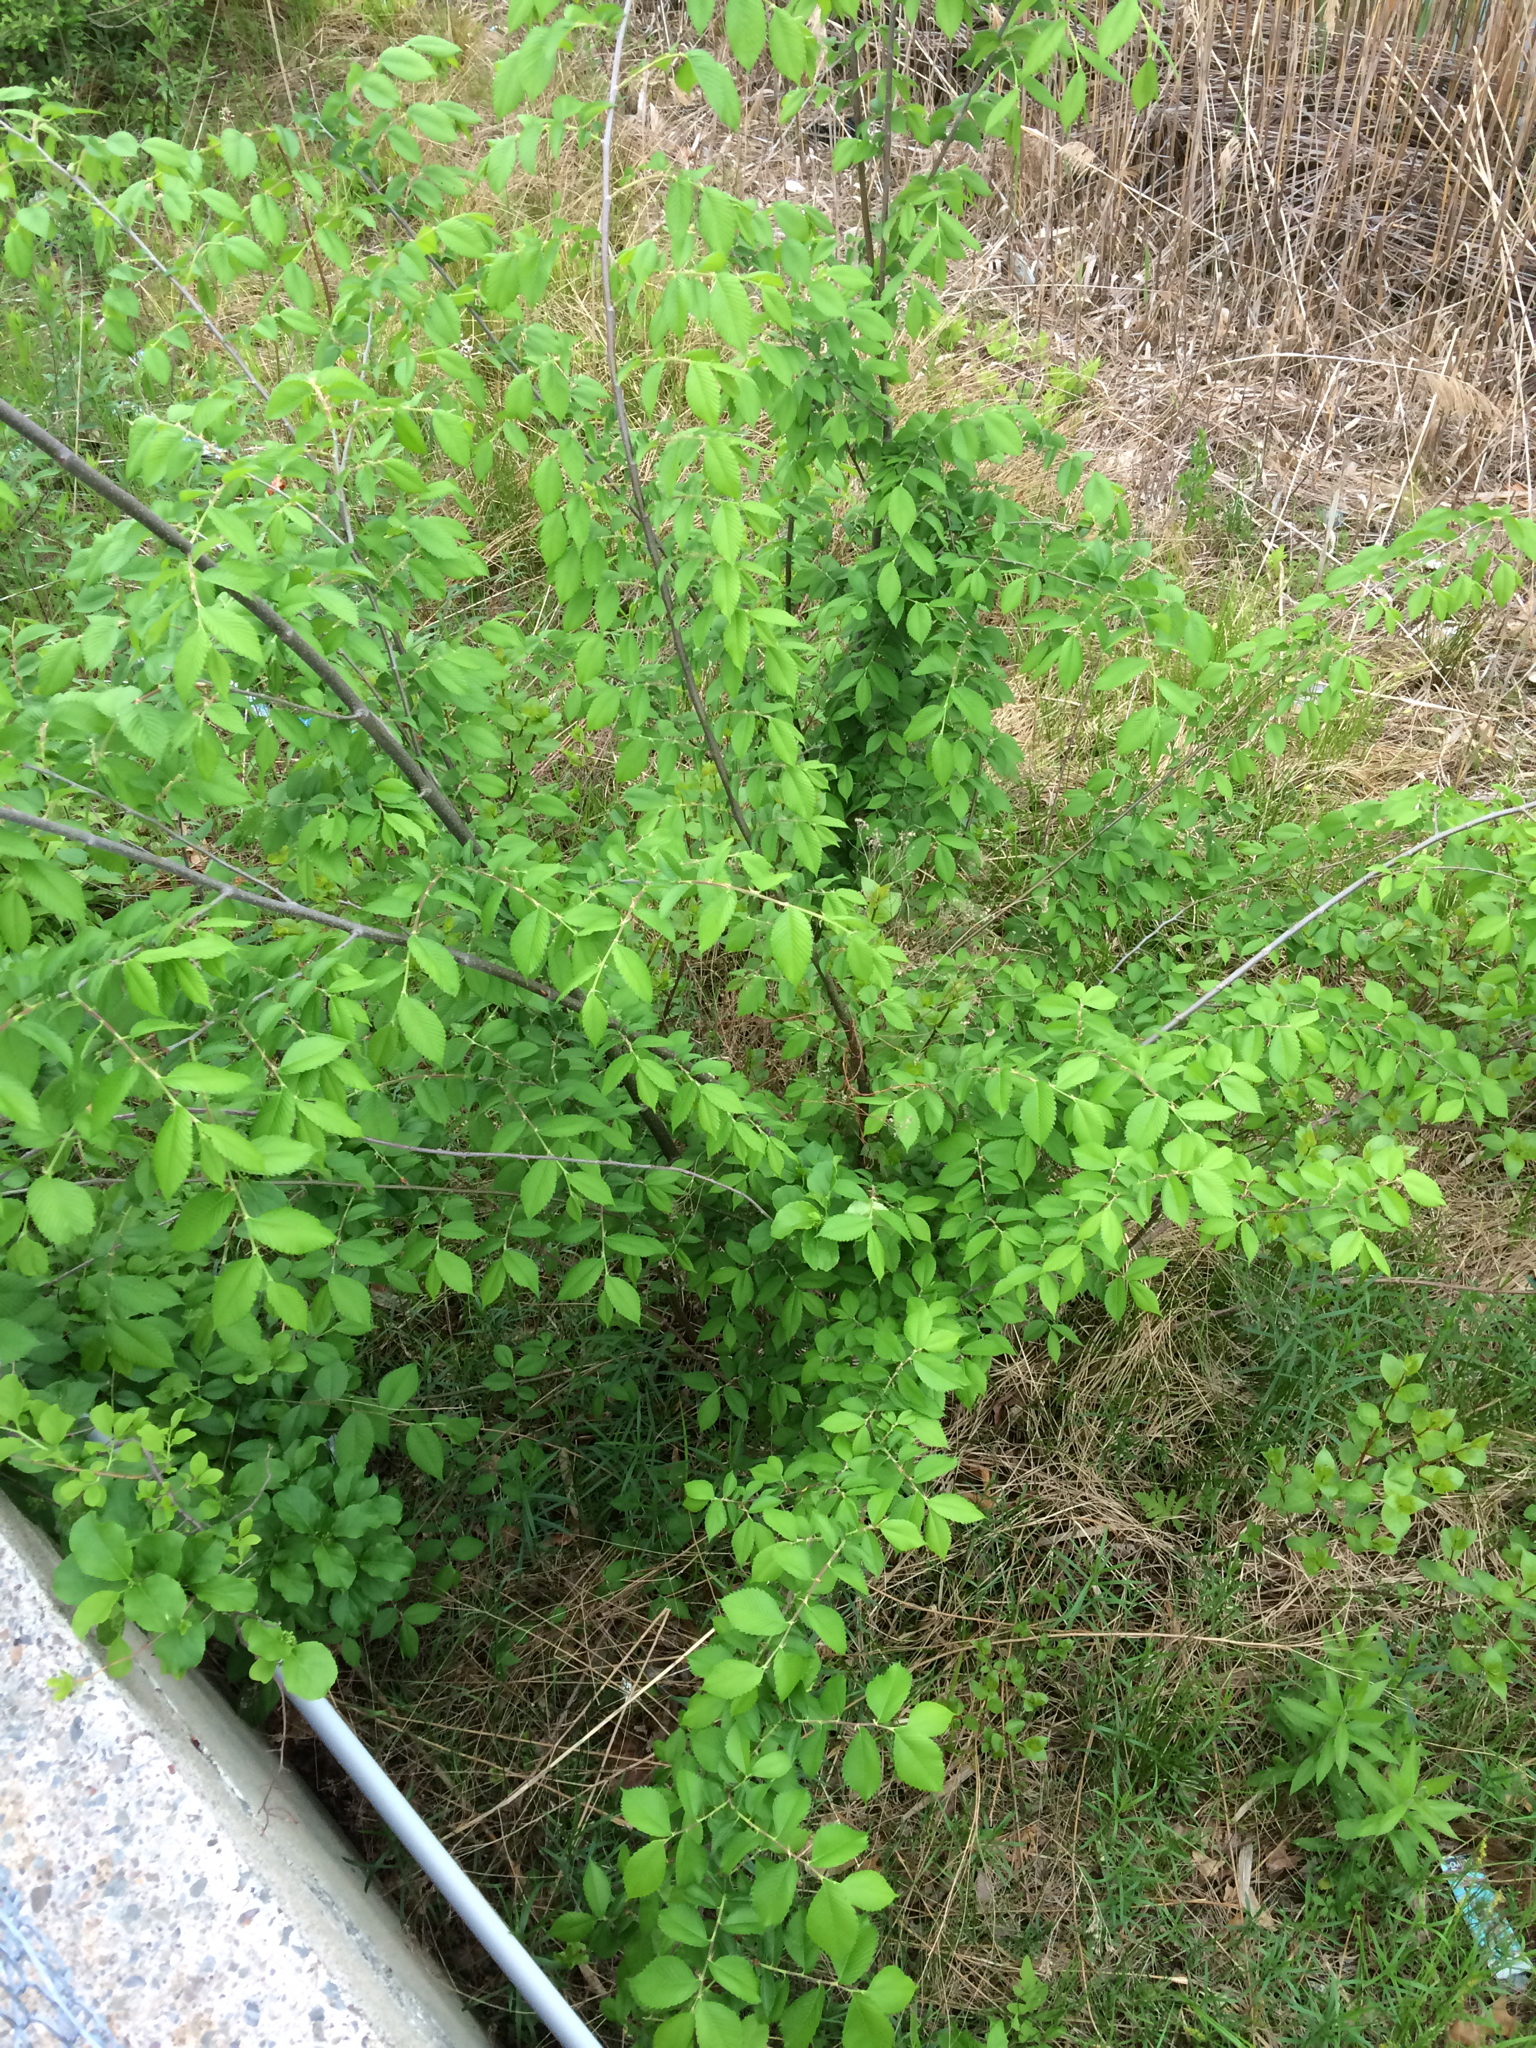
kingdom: Plantae
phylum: Tracheophyta
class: Magnoliopsida
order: Rosales
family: Ulmaceae
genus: Ulmus
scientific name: Ulmus americana
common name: American elm
